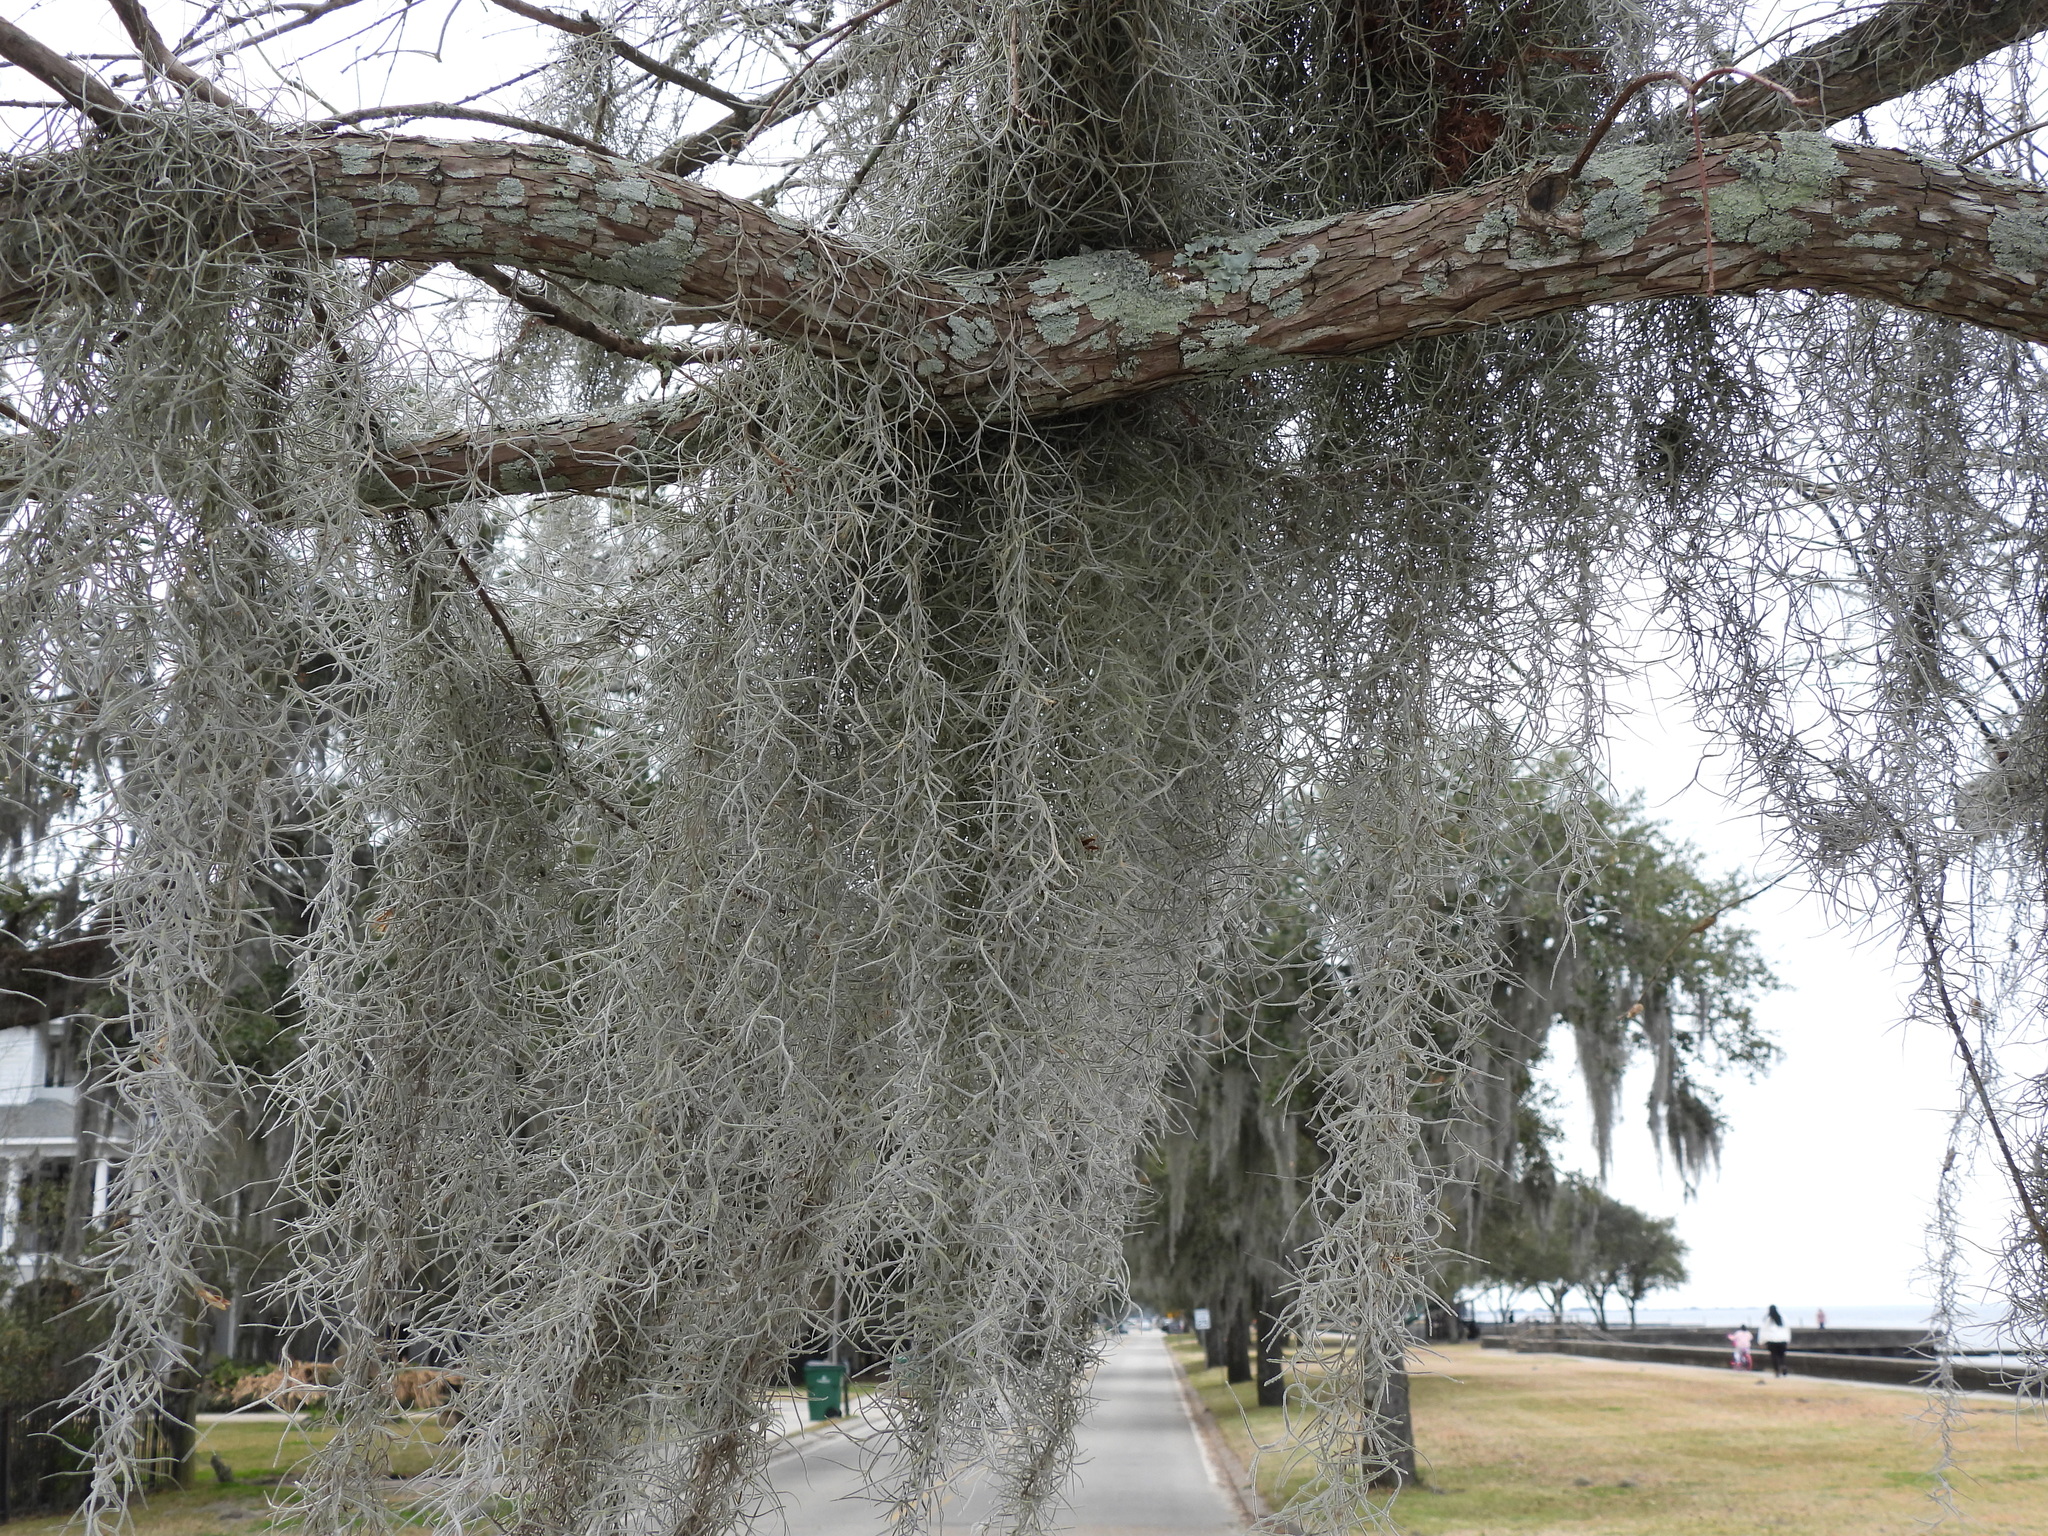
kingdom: Plantae
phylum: Tracheophyta
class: Liliopsida
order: Poales
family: Bromeliaceae
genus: Tillandsia
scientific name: Tillandsia usneoides
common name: Spanish moss
